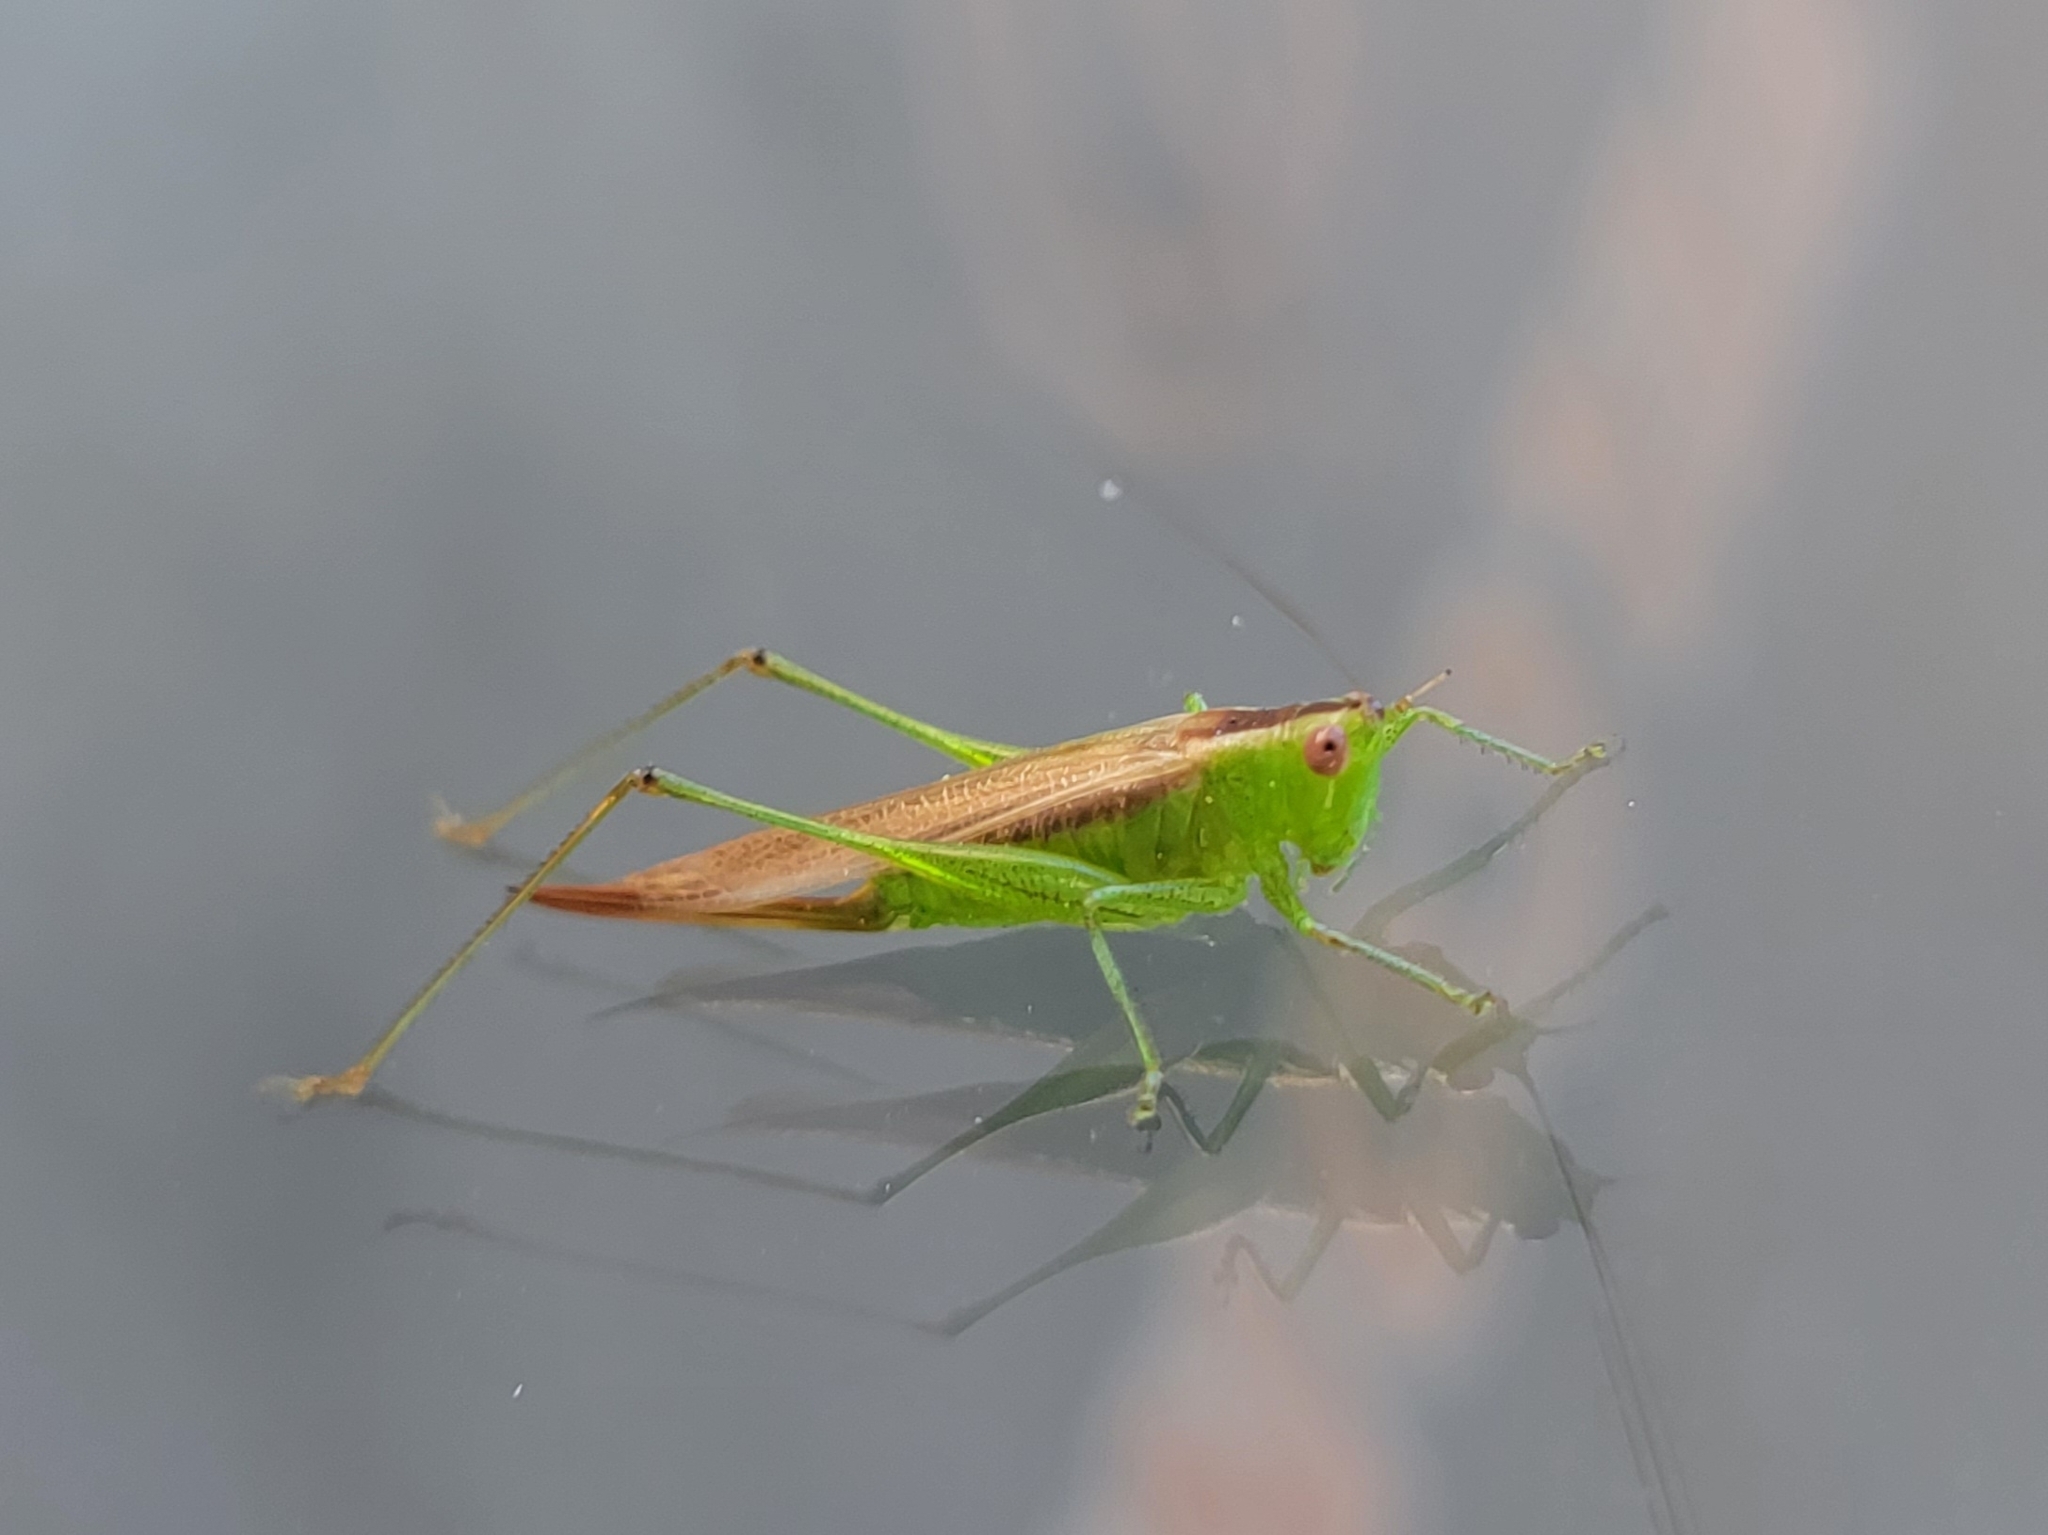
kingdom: Animalia
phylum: Arthropoda
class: Insecta
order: Orthoptera
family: Tettigoniidae
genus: Conocephalus
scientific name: Conocephalus brevipennis
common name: Short-winged meadow katydid
